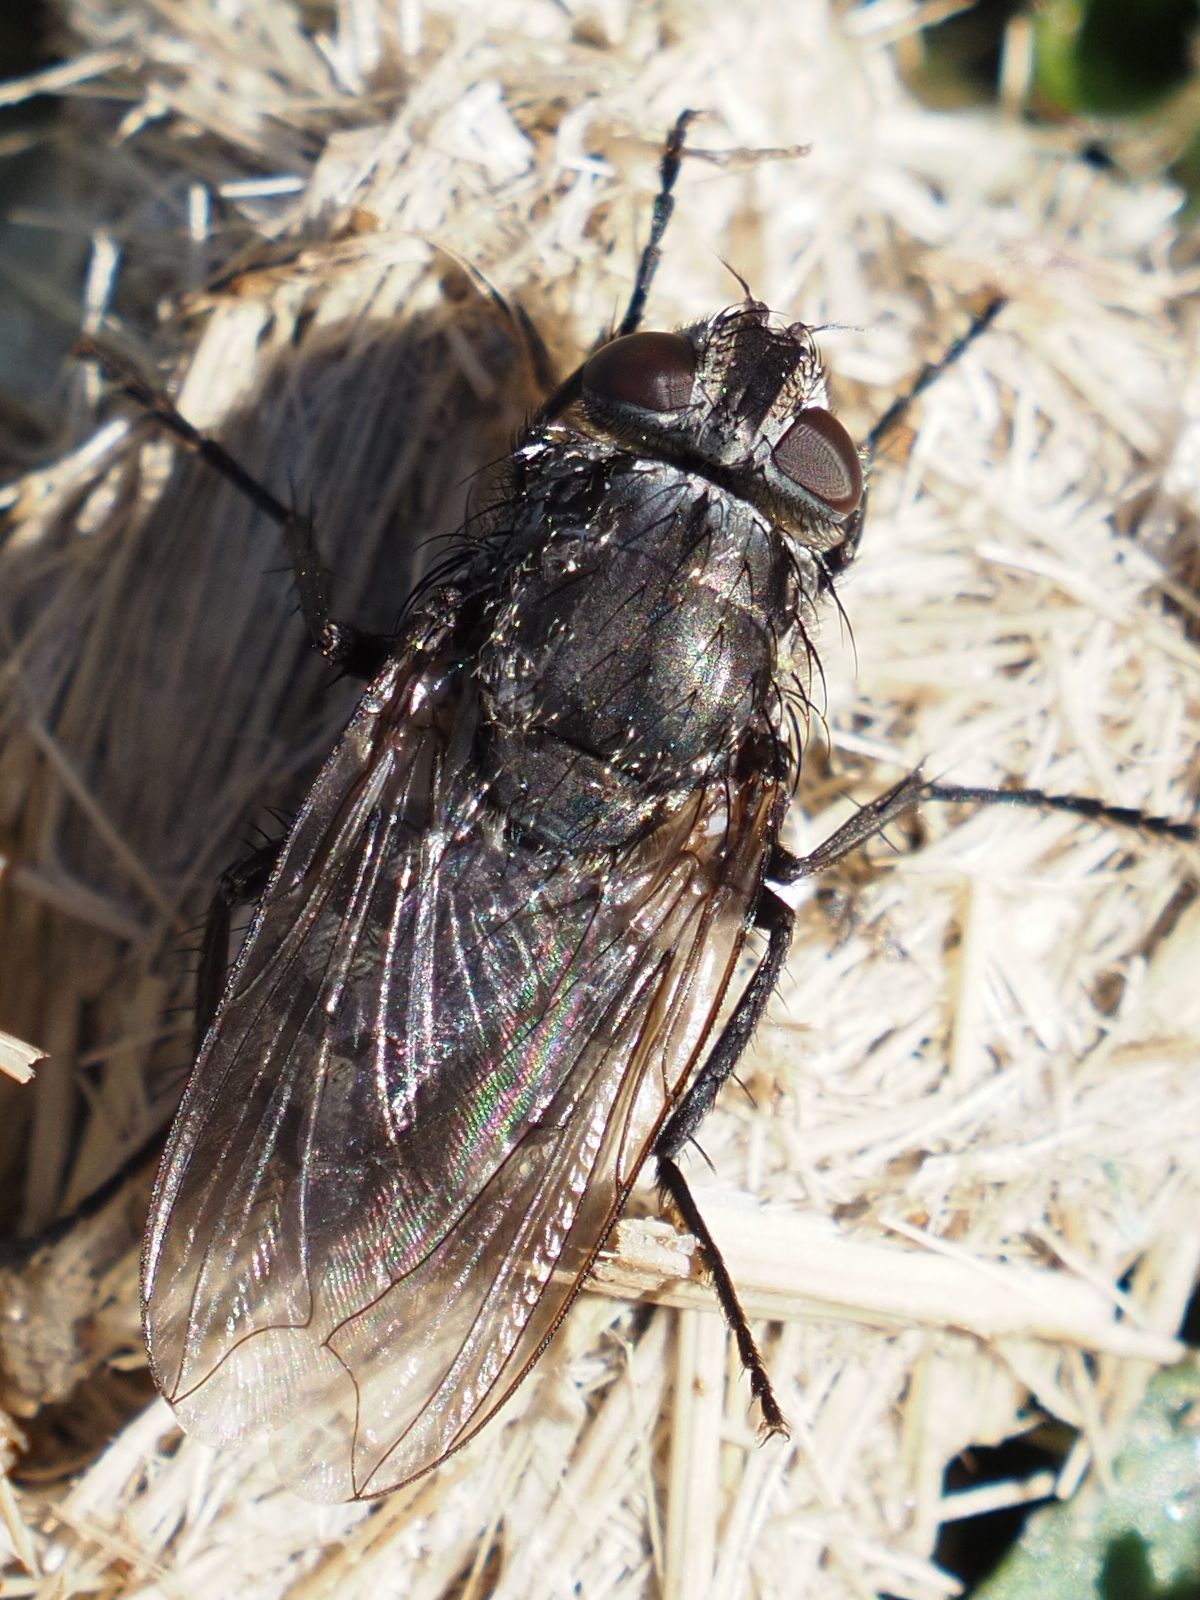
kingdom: Animalia
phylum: Arthropoda
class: Insecta
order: Diptera
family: Polleniidae
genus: Pollenia
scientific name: Pollenia vagabunda
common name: Vagabund cluster fly
